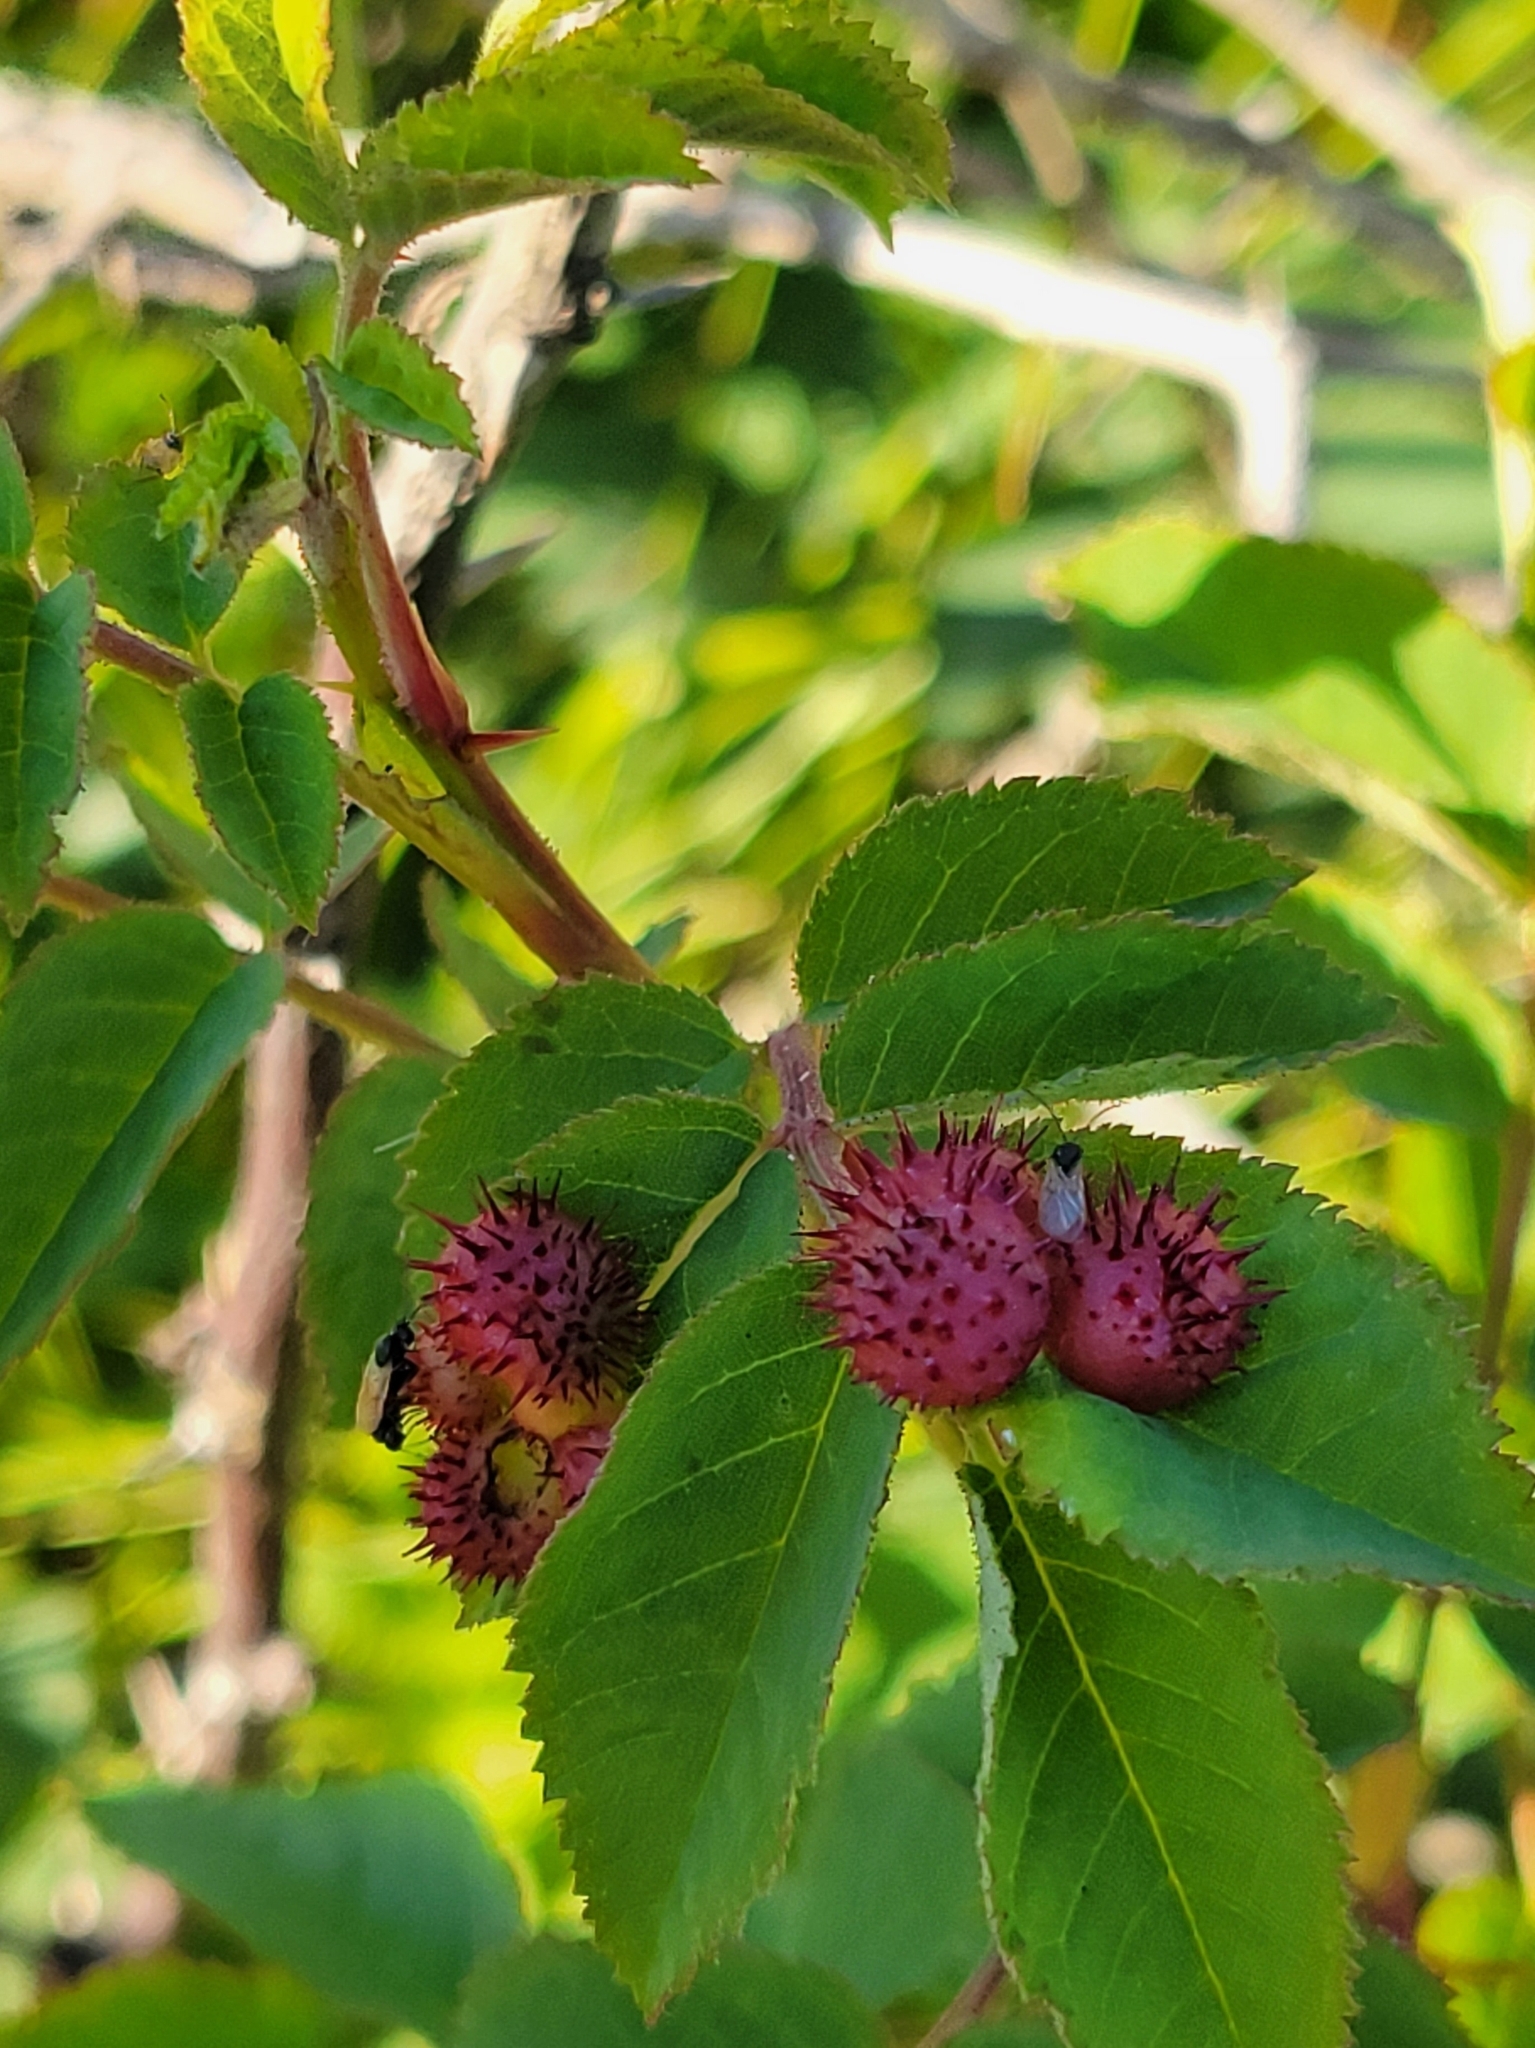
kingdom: Animalia
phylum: Arthropoda
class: Insecta
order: Hymenoptera
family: Cynipidae
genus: Diplolepis
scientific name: Diplolepis polita
